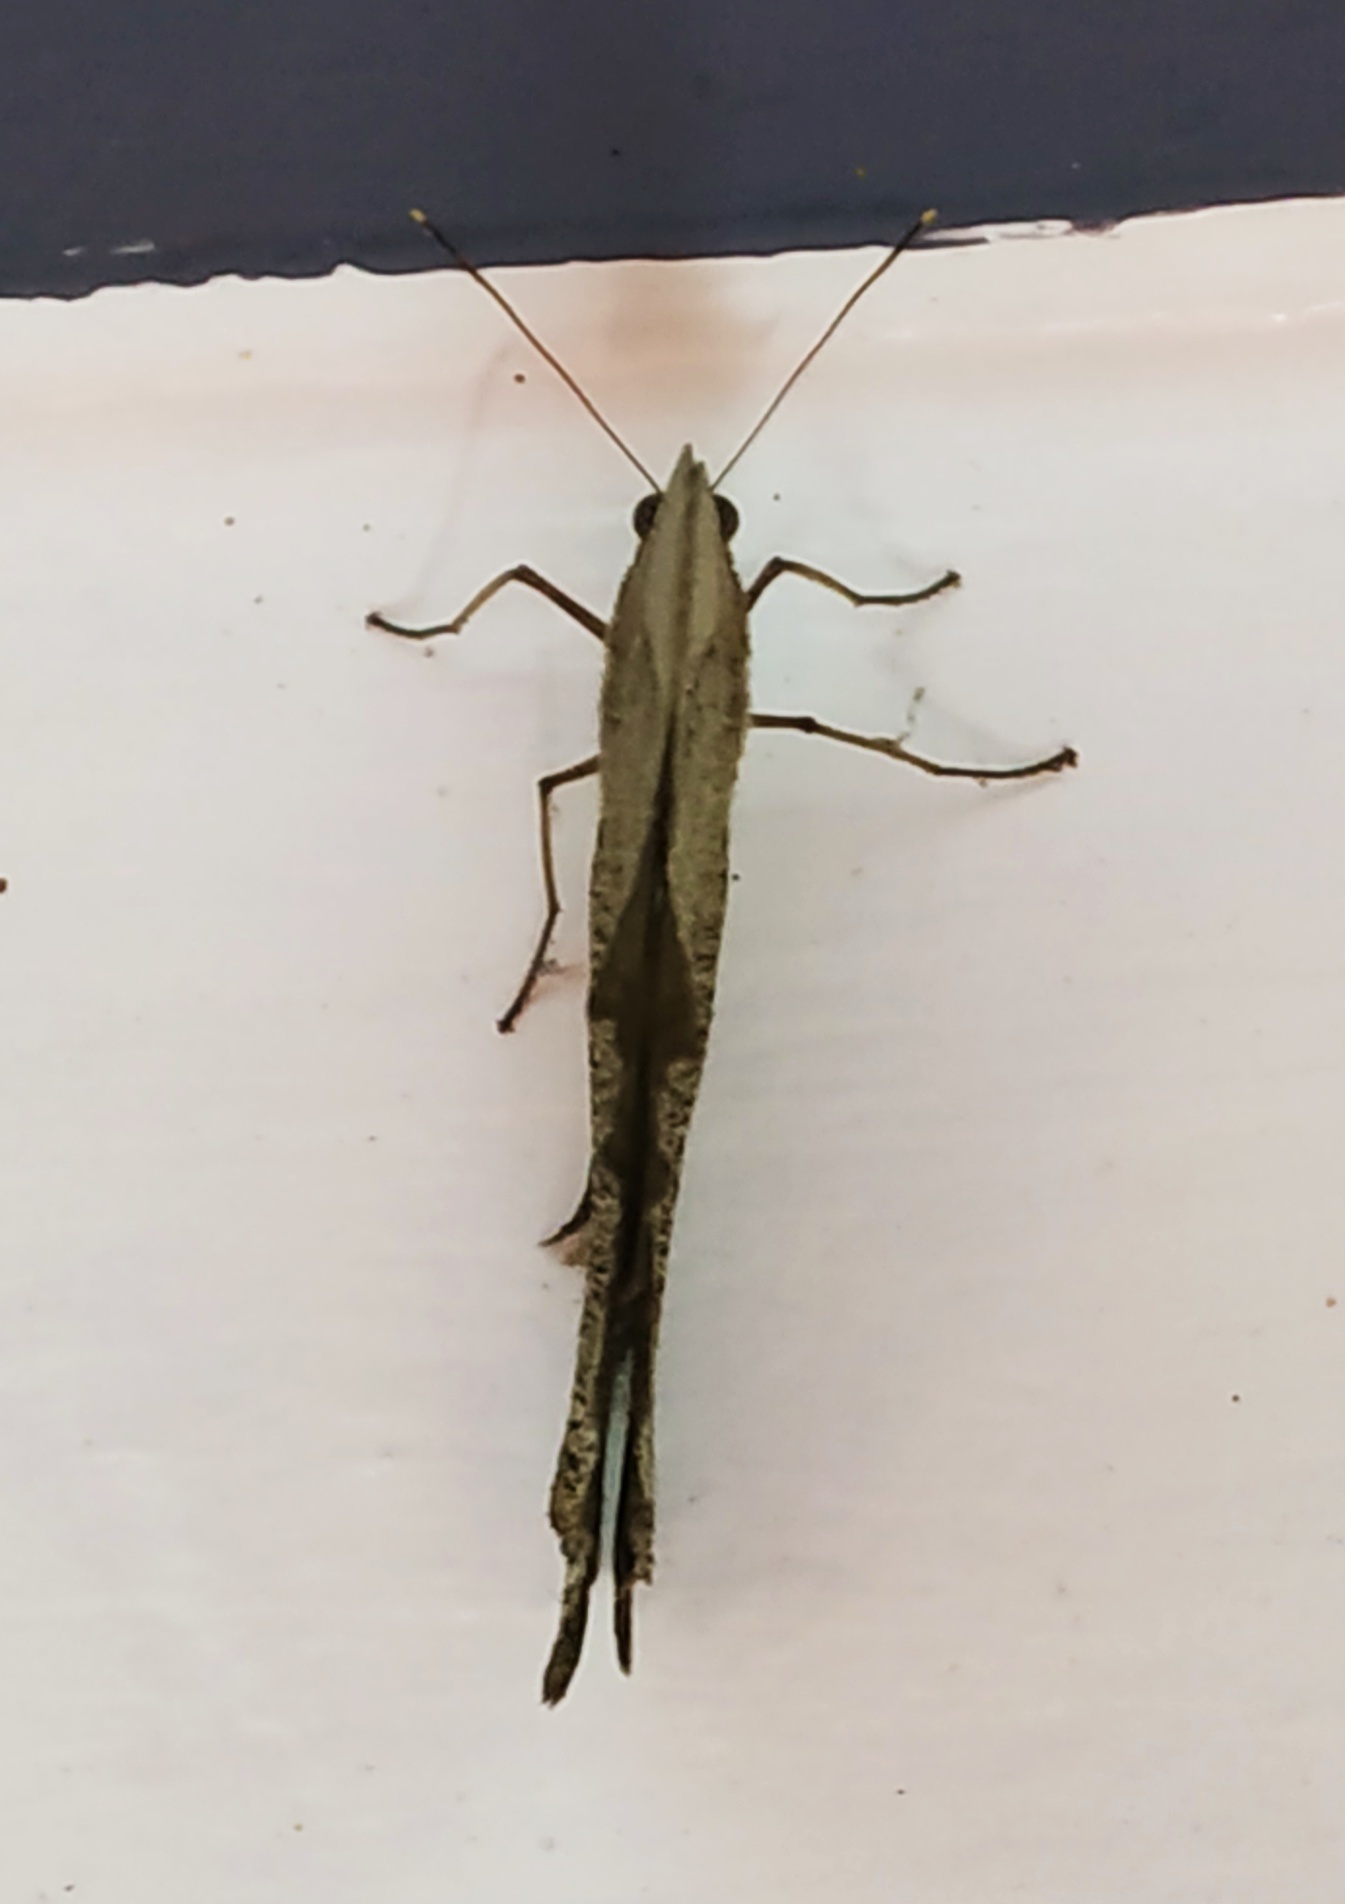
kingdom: Animalia
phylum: Arthropoda
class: Insecta
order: Lepidoptera
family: Nymphalidae
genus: Melanitis
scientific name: Melanitis leda
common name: Twilight brown
